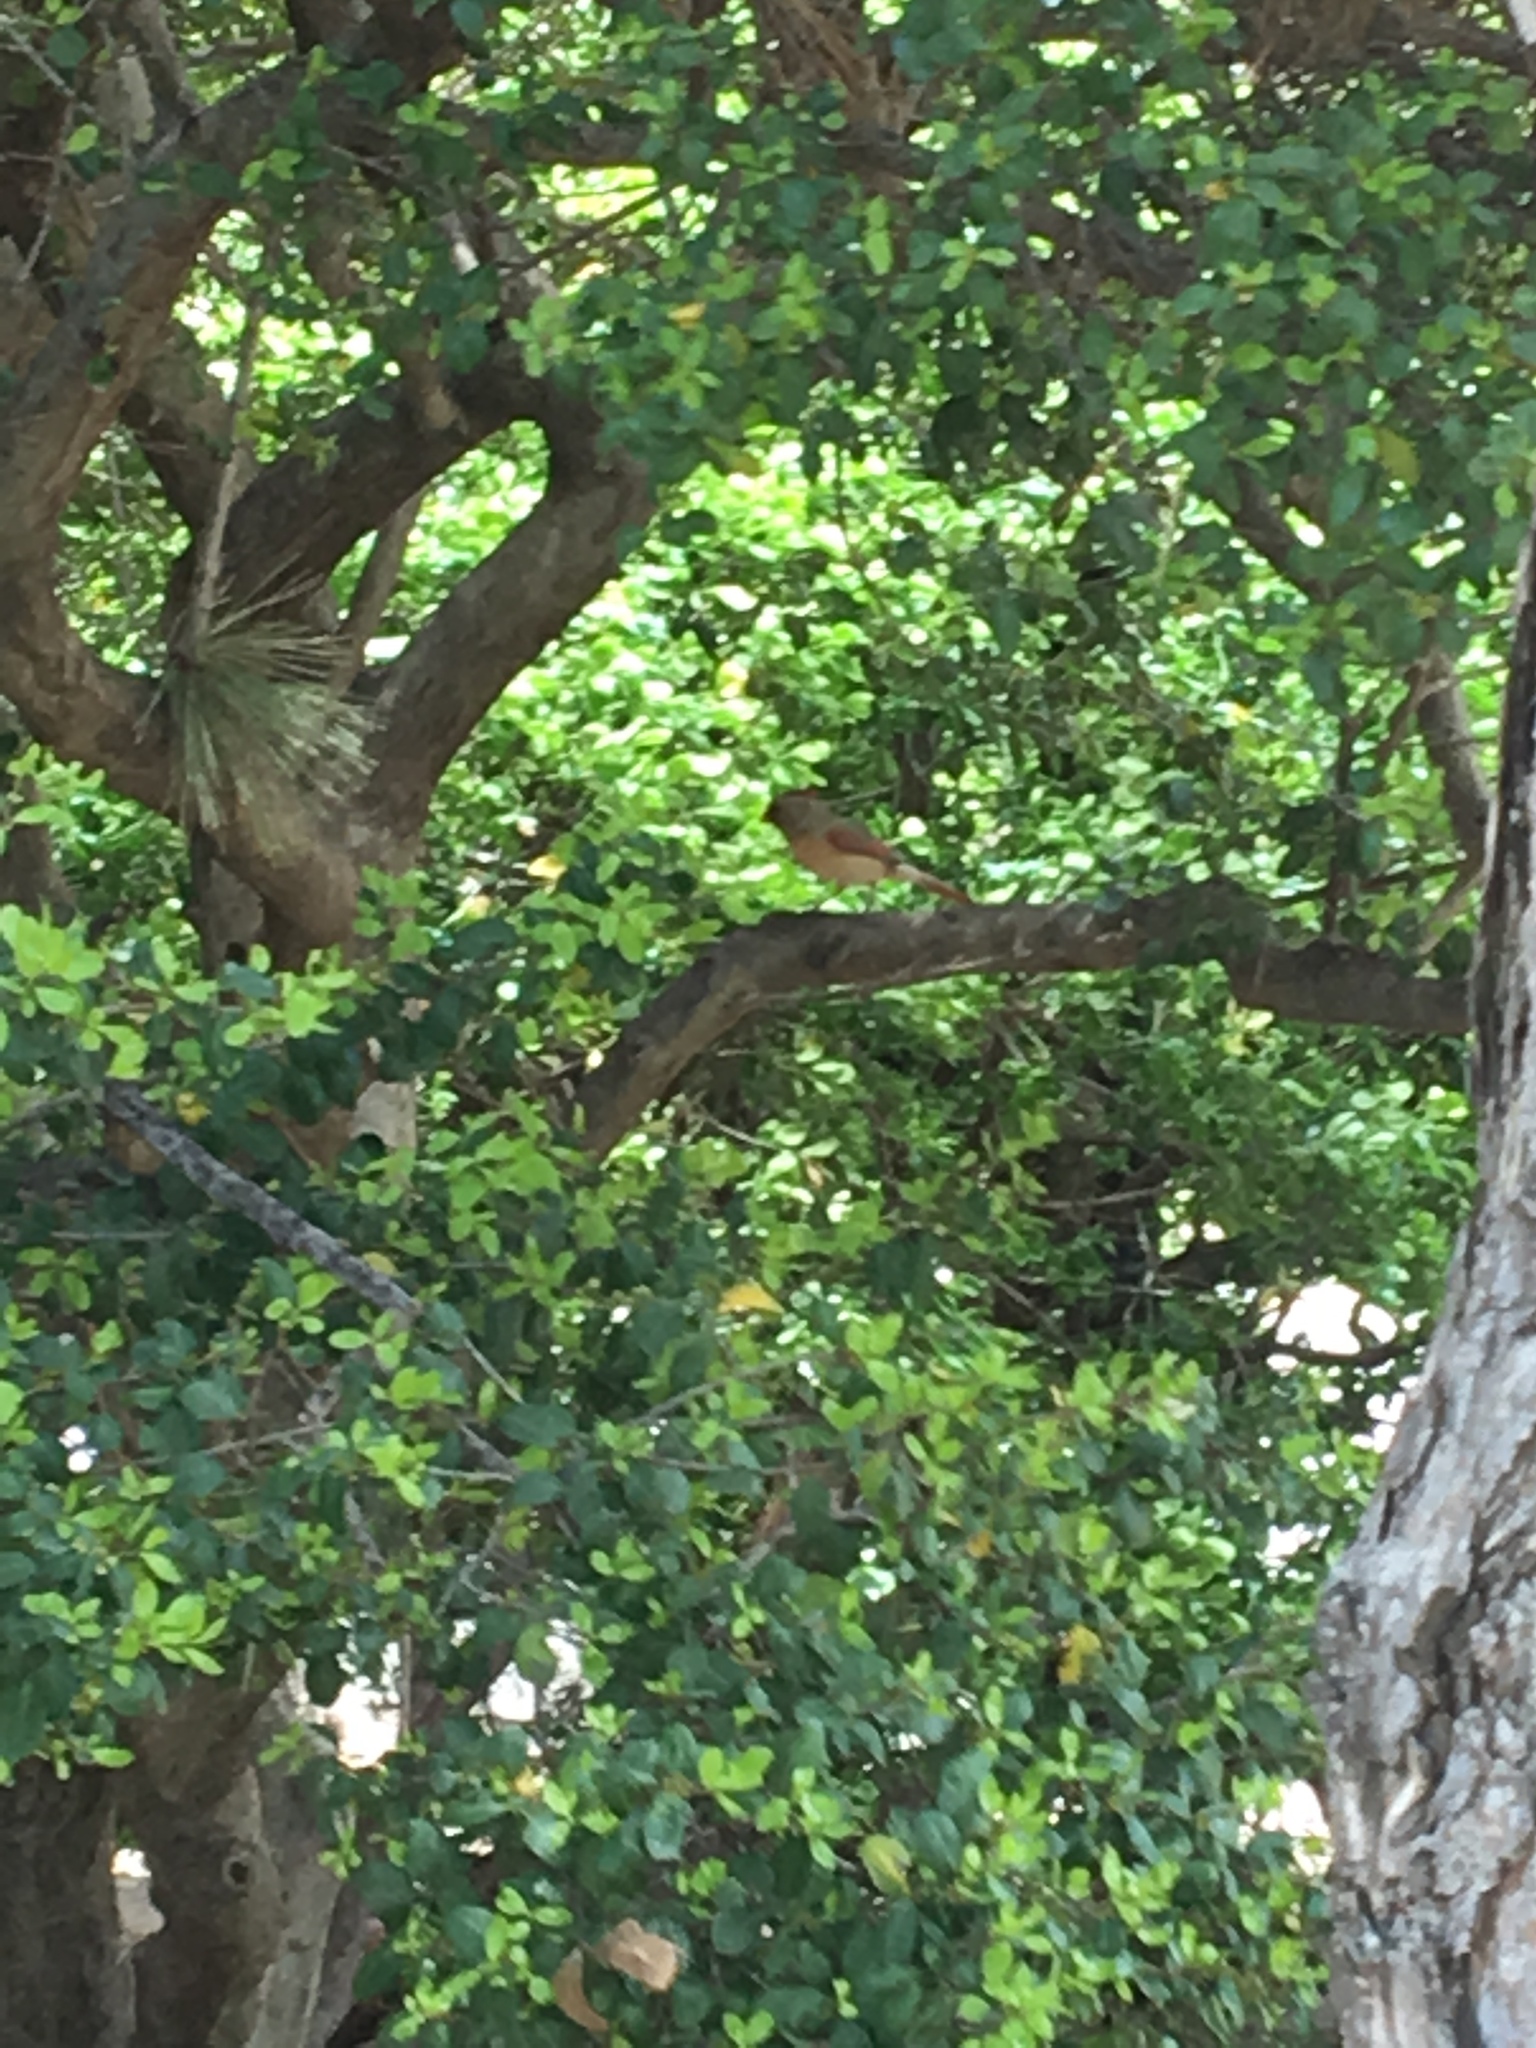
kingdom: Animalia
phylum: Chordata
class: Aves
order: Passeriformes
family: Cardinalidae
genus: Cardinalis
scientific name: Cardinalis cardinalis
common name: Northern cardinal
